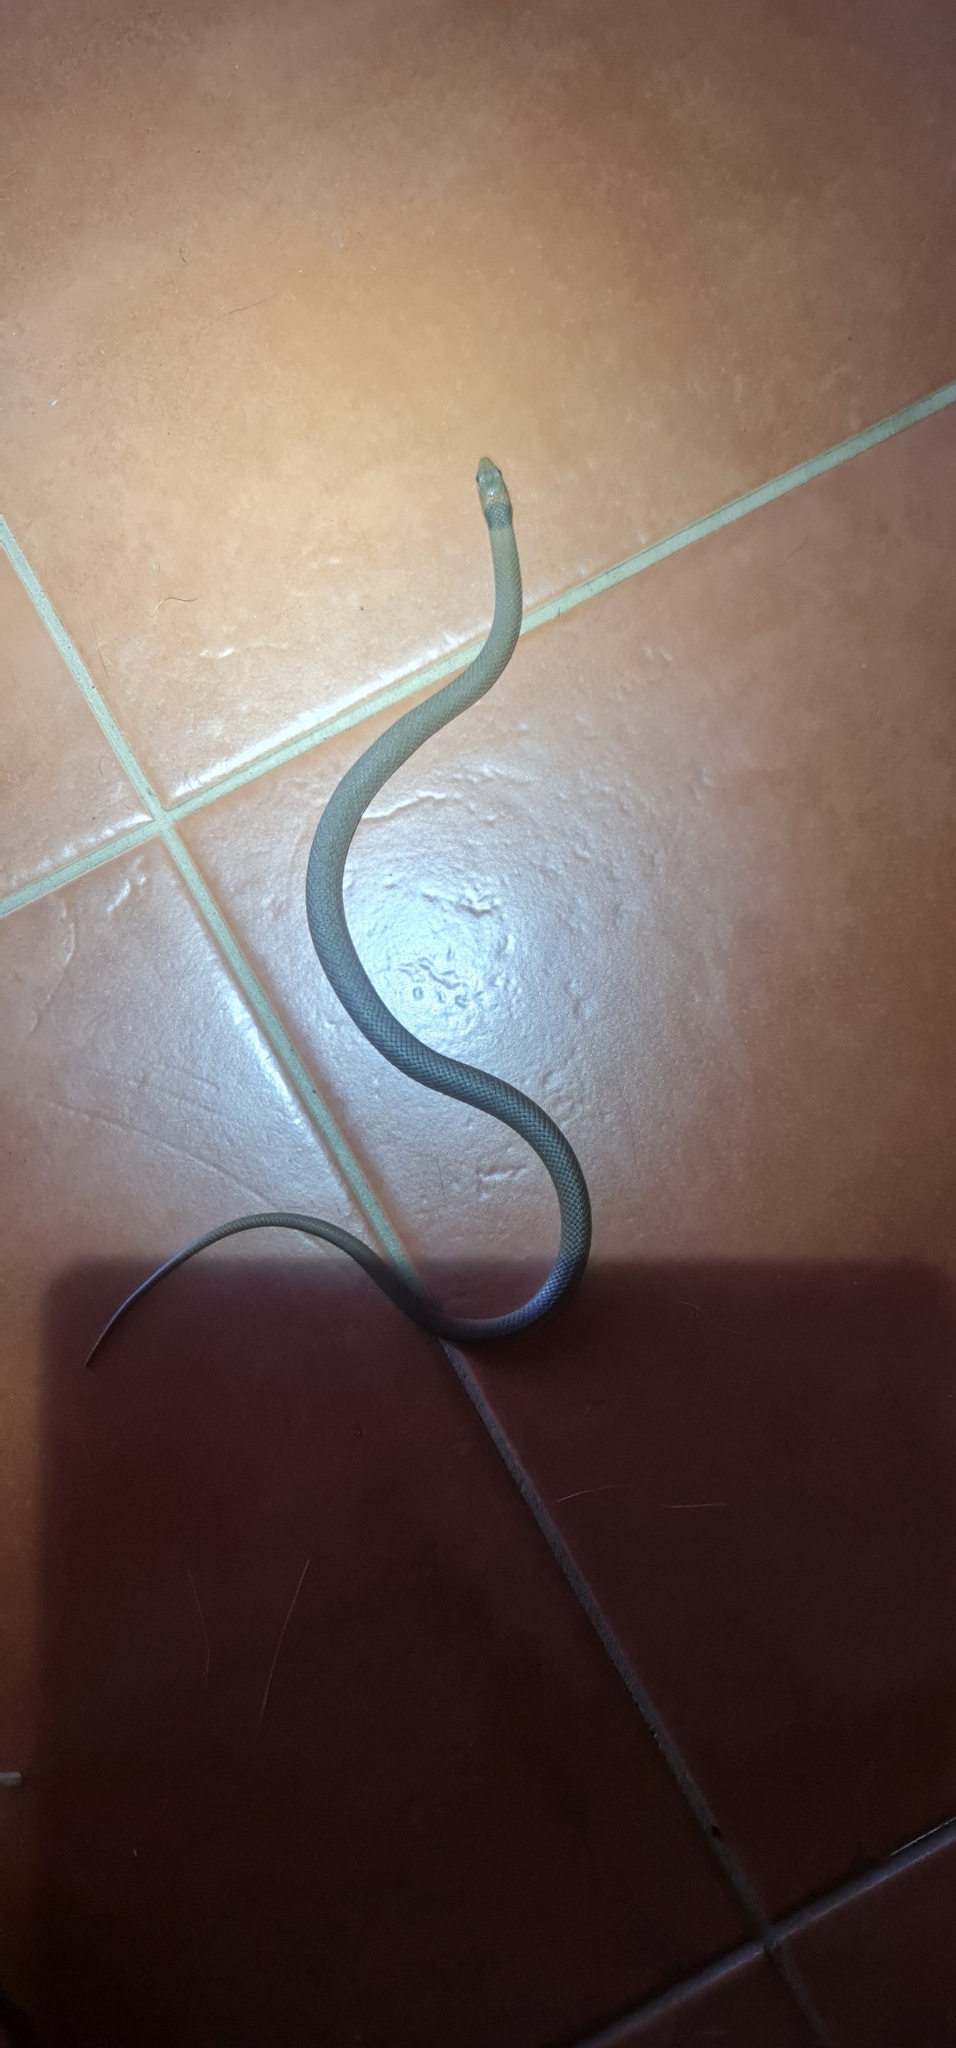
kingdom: Animalia
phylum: Chordata
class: Squamata
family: Elapidae
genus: Pseudonaja
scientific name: Pseudonaja textilis
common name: Eastern brown snake
